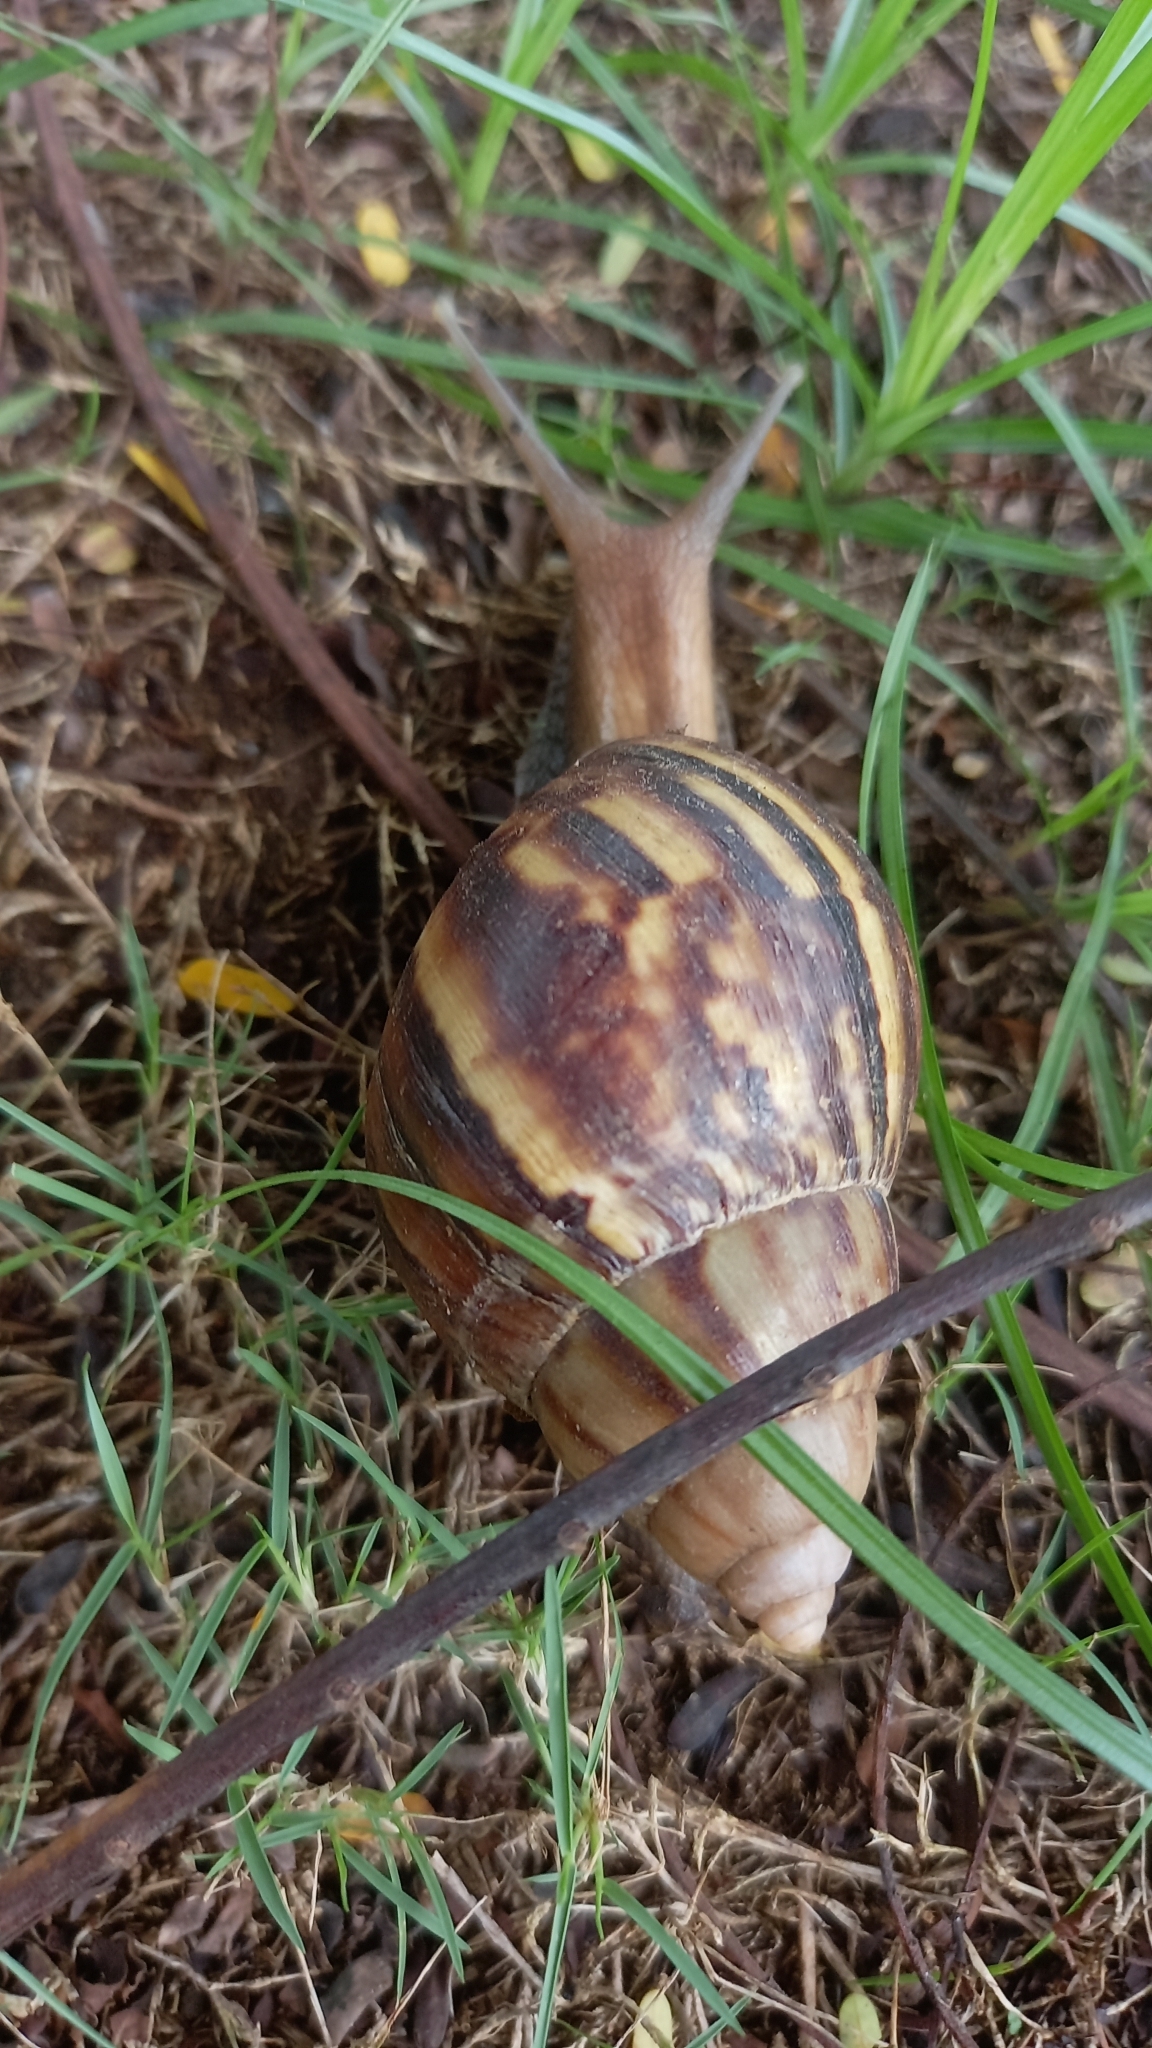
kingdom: Animalia
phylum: Mollusca
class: Gastropoda
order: Stylommatophora
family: Achatinidae
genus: Lissachatina
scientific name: Lissachatina fulica
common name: Giant african snail
